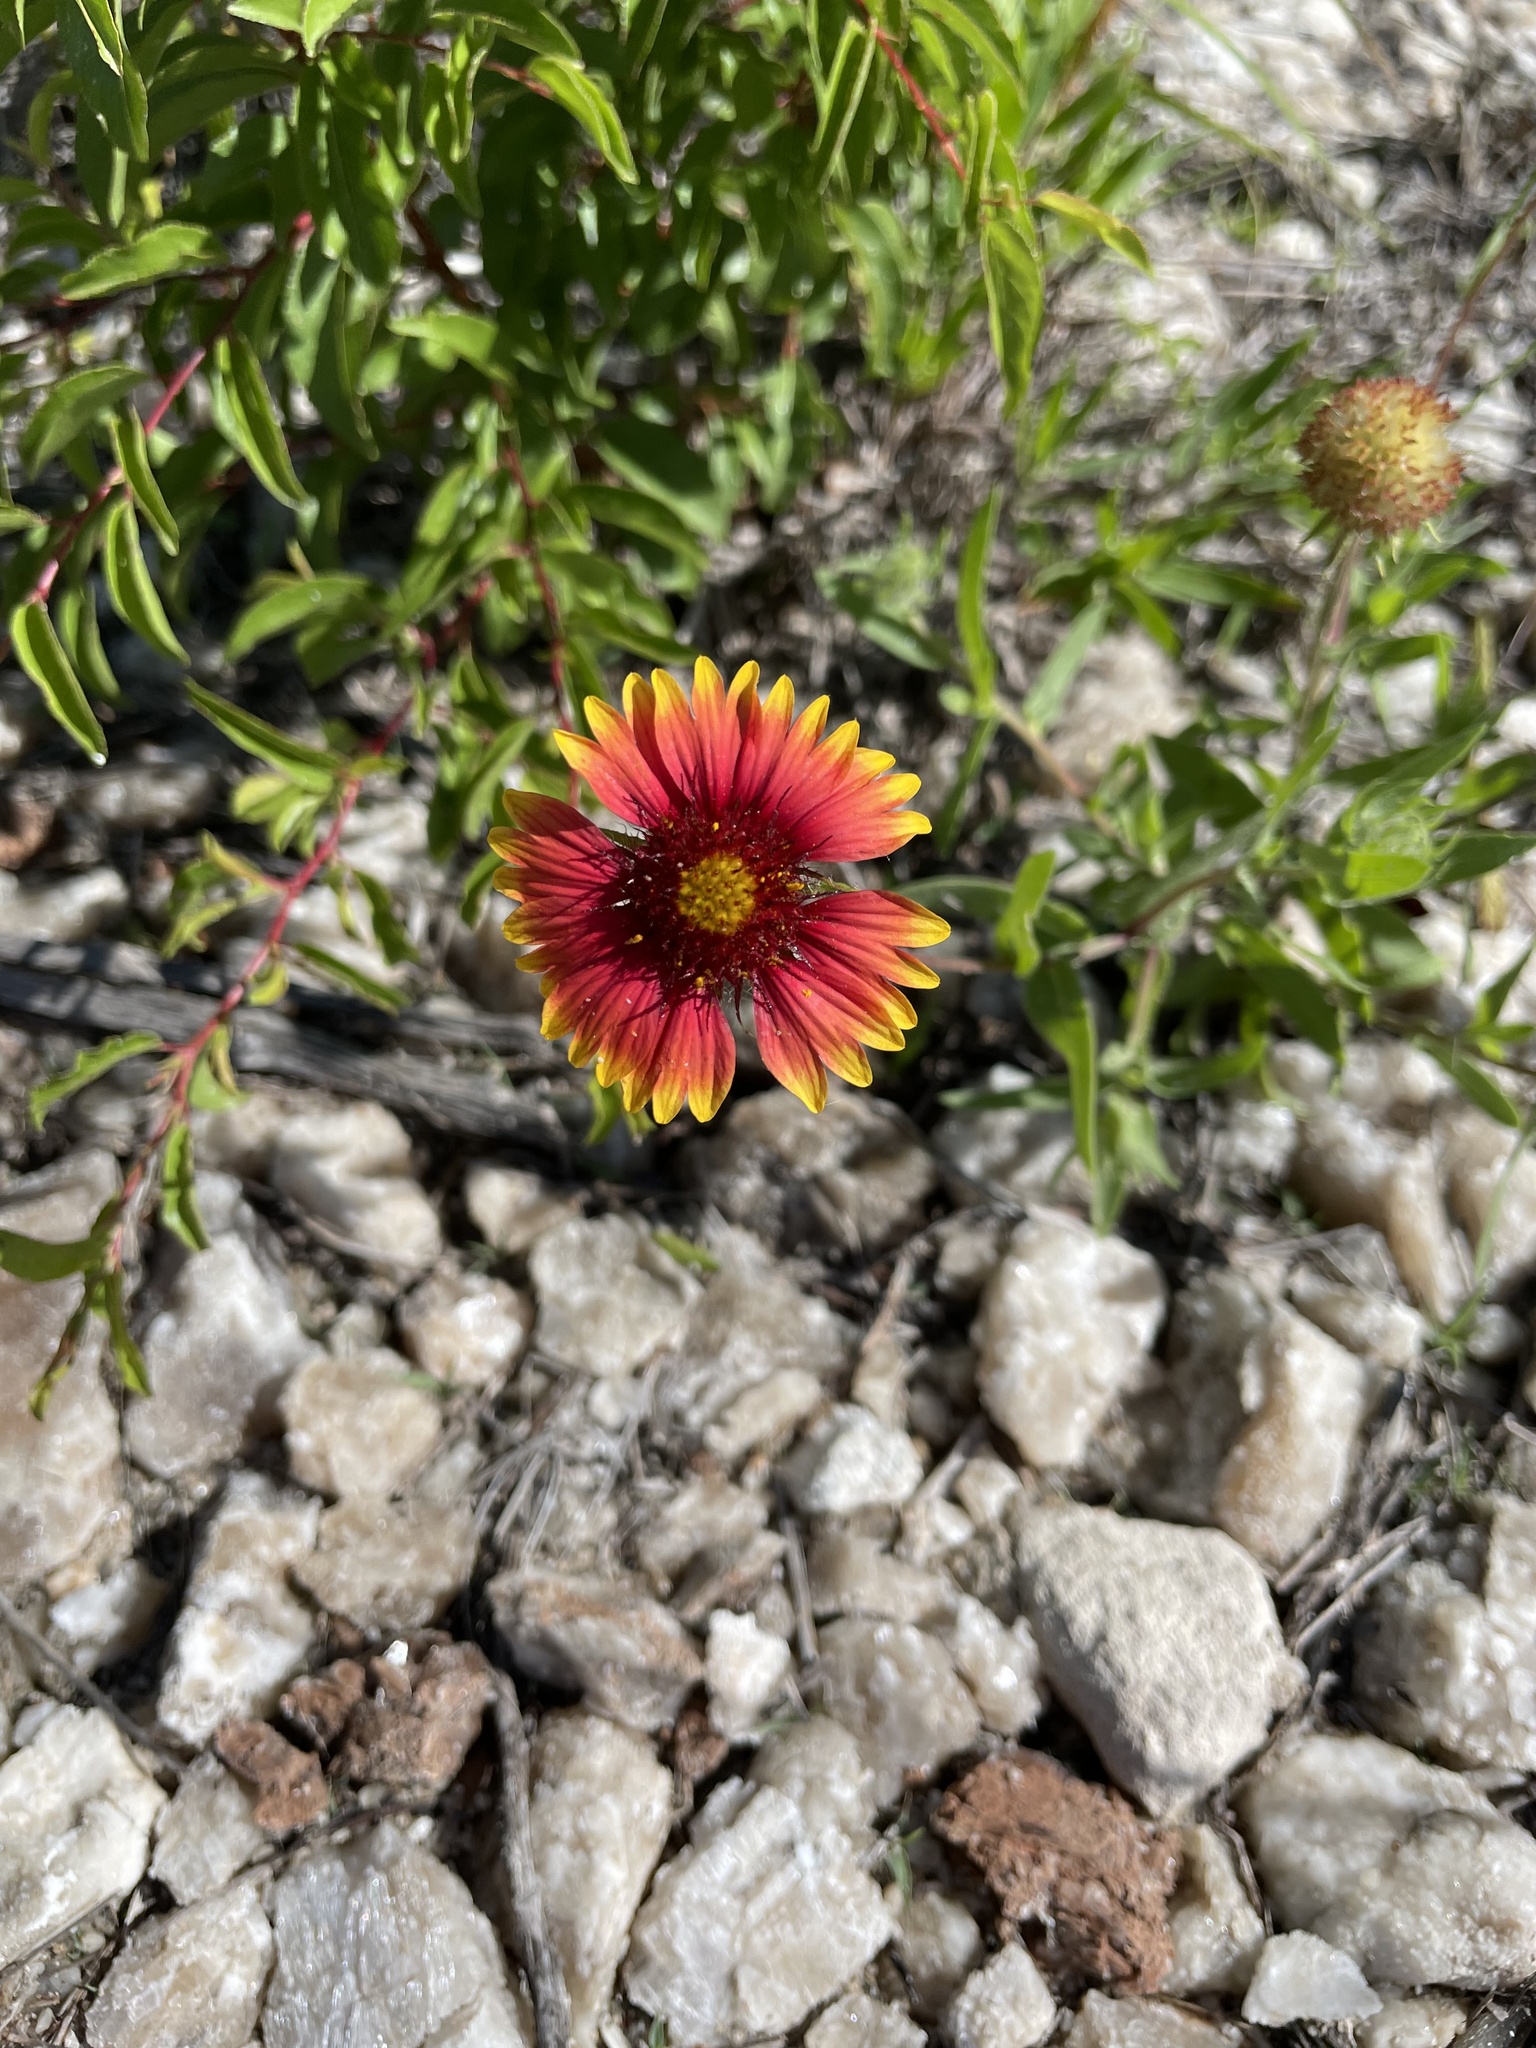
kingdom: Plantae
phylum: Tracheophyta
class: Magnoliopsida
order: Asterales
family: Asteraceae
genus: Gaillardia
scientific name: Gaillardia pulchella
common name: Firewheel
